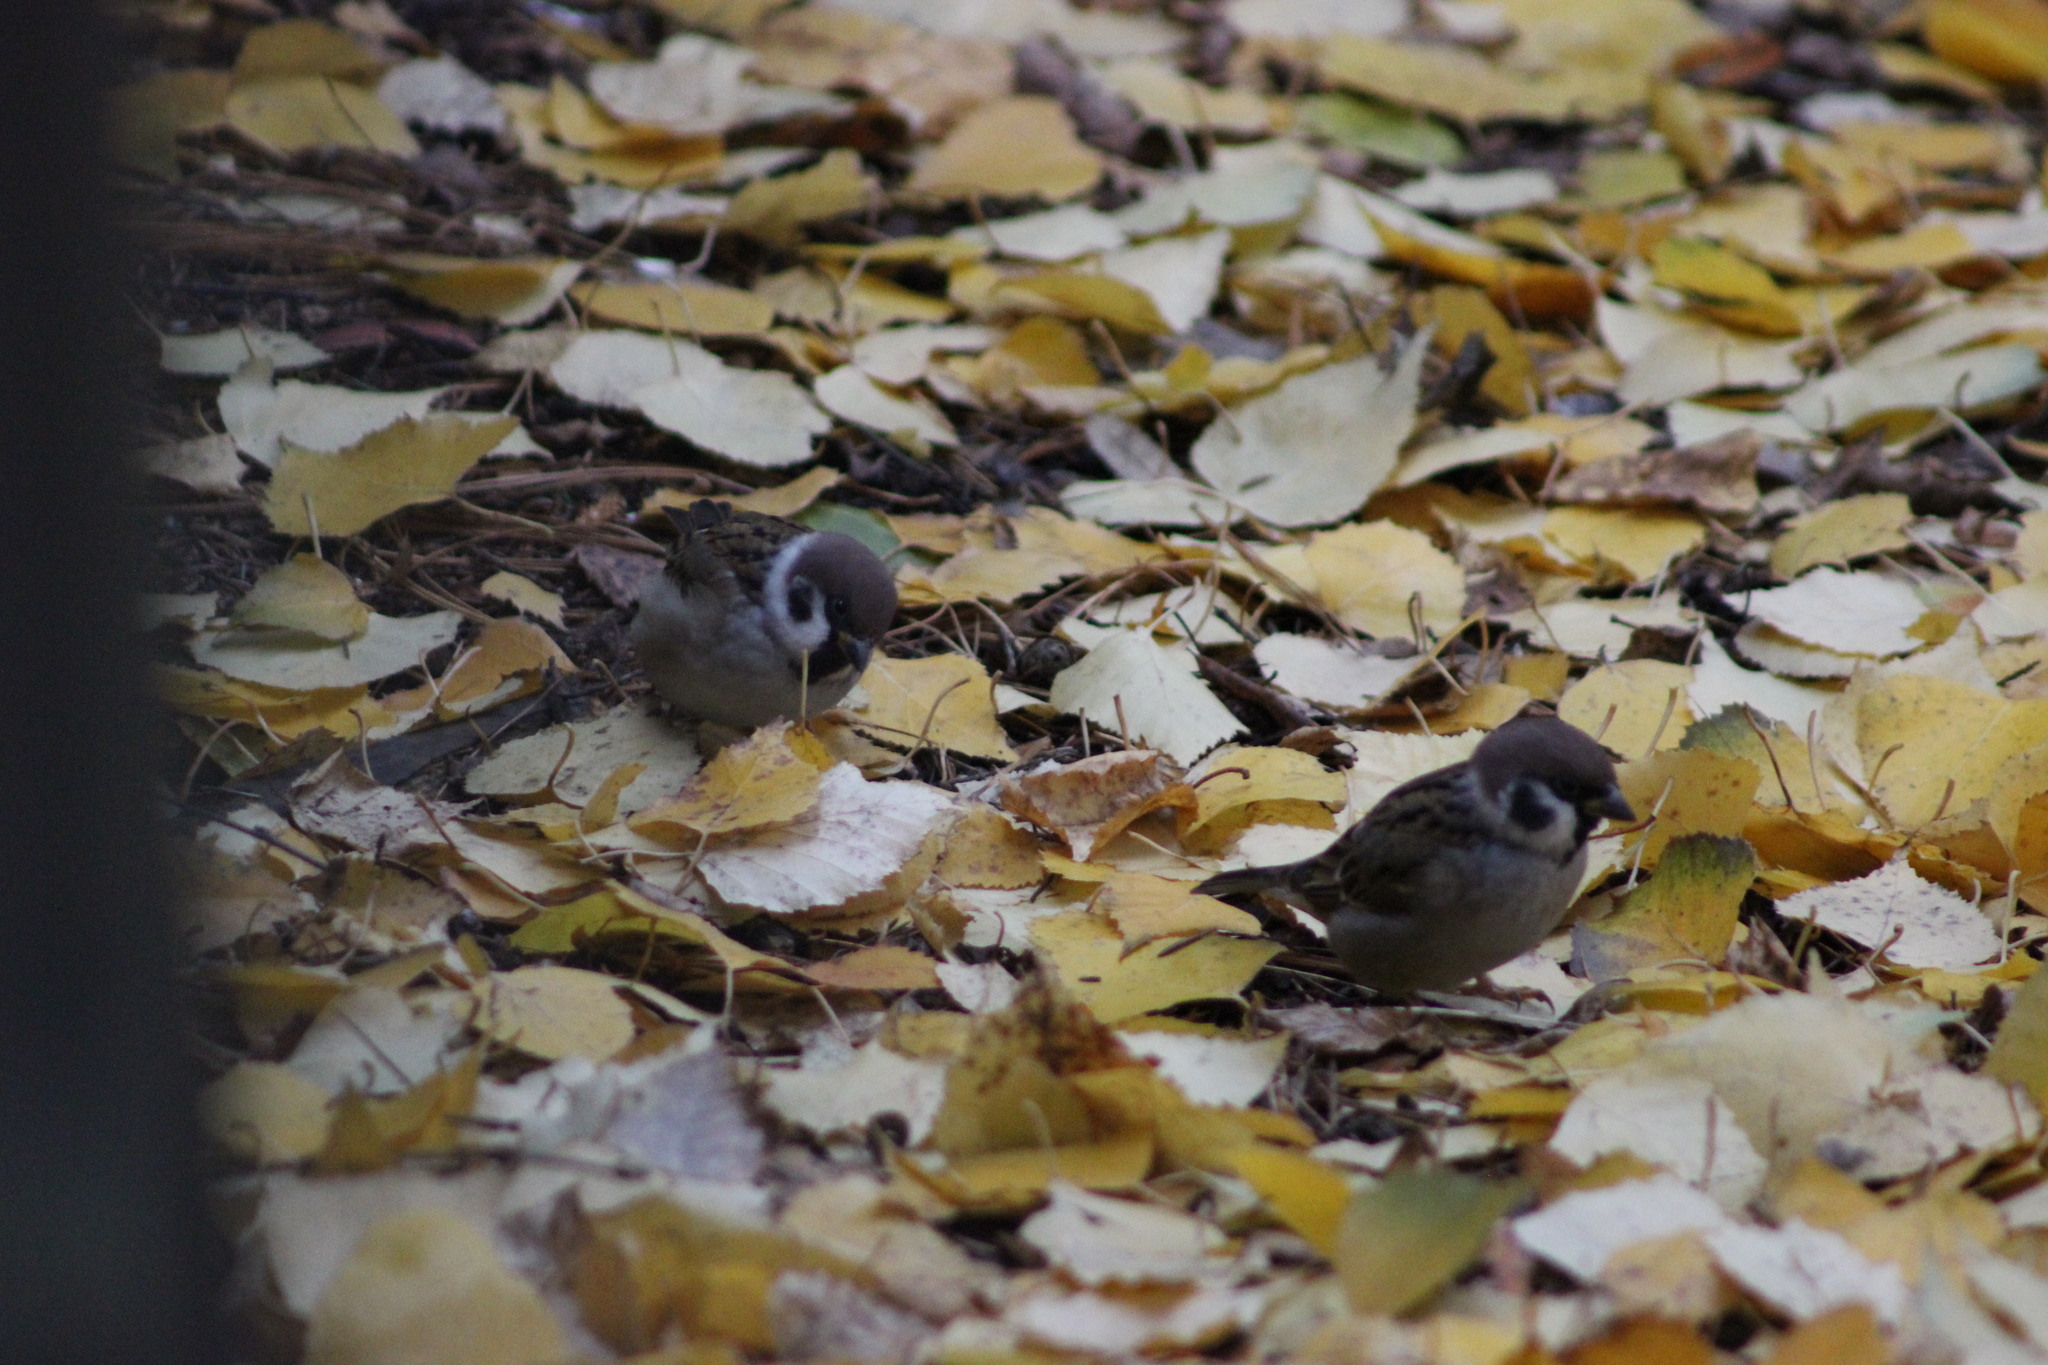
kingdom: Animalia
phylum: Chordata
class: Aves
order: Passeriformes
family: Passeridae
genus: Passer
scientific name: Passer montanus
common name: Eurasian tree sparrow
